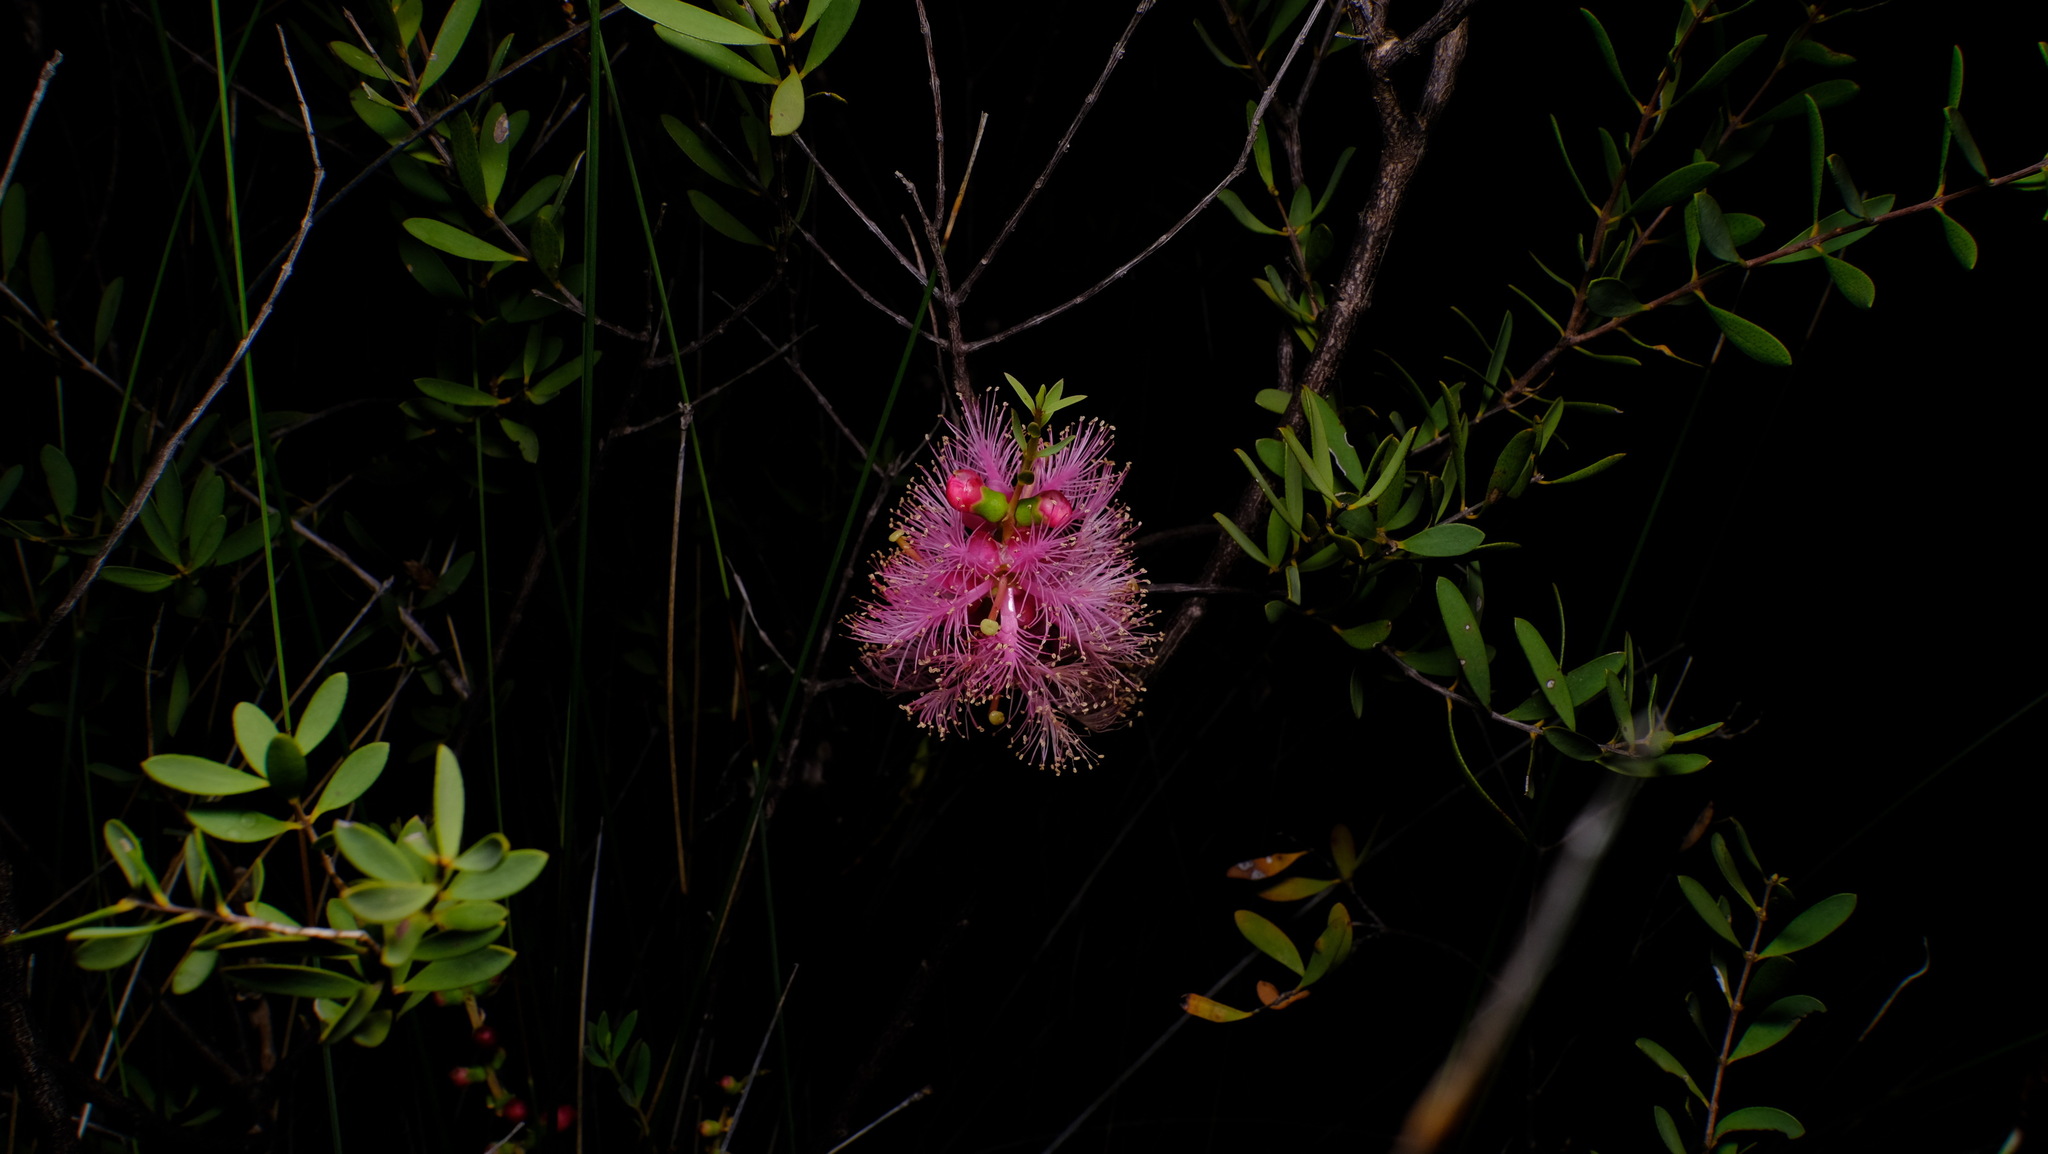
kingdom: Plantae
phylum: Tracheophyta
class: Magnoliopsida
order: Myrtales
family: Myrtaceae
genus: Melaleuca
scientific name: Melaleuca fulgens
